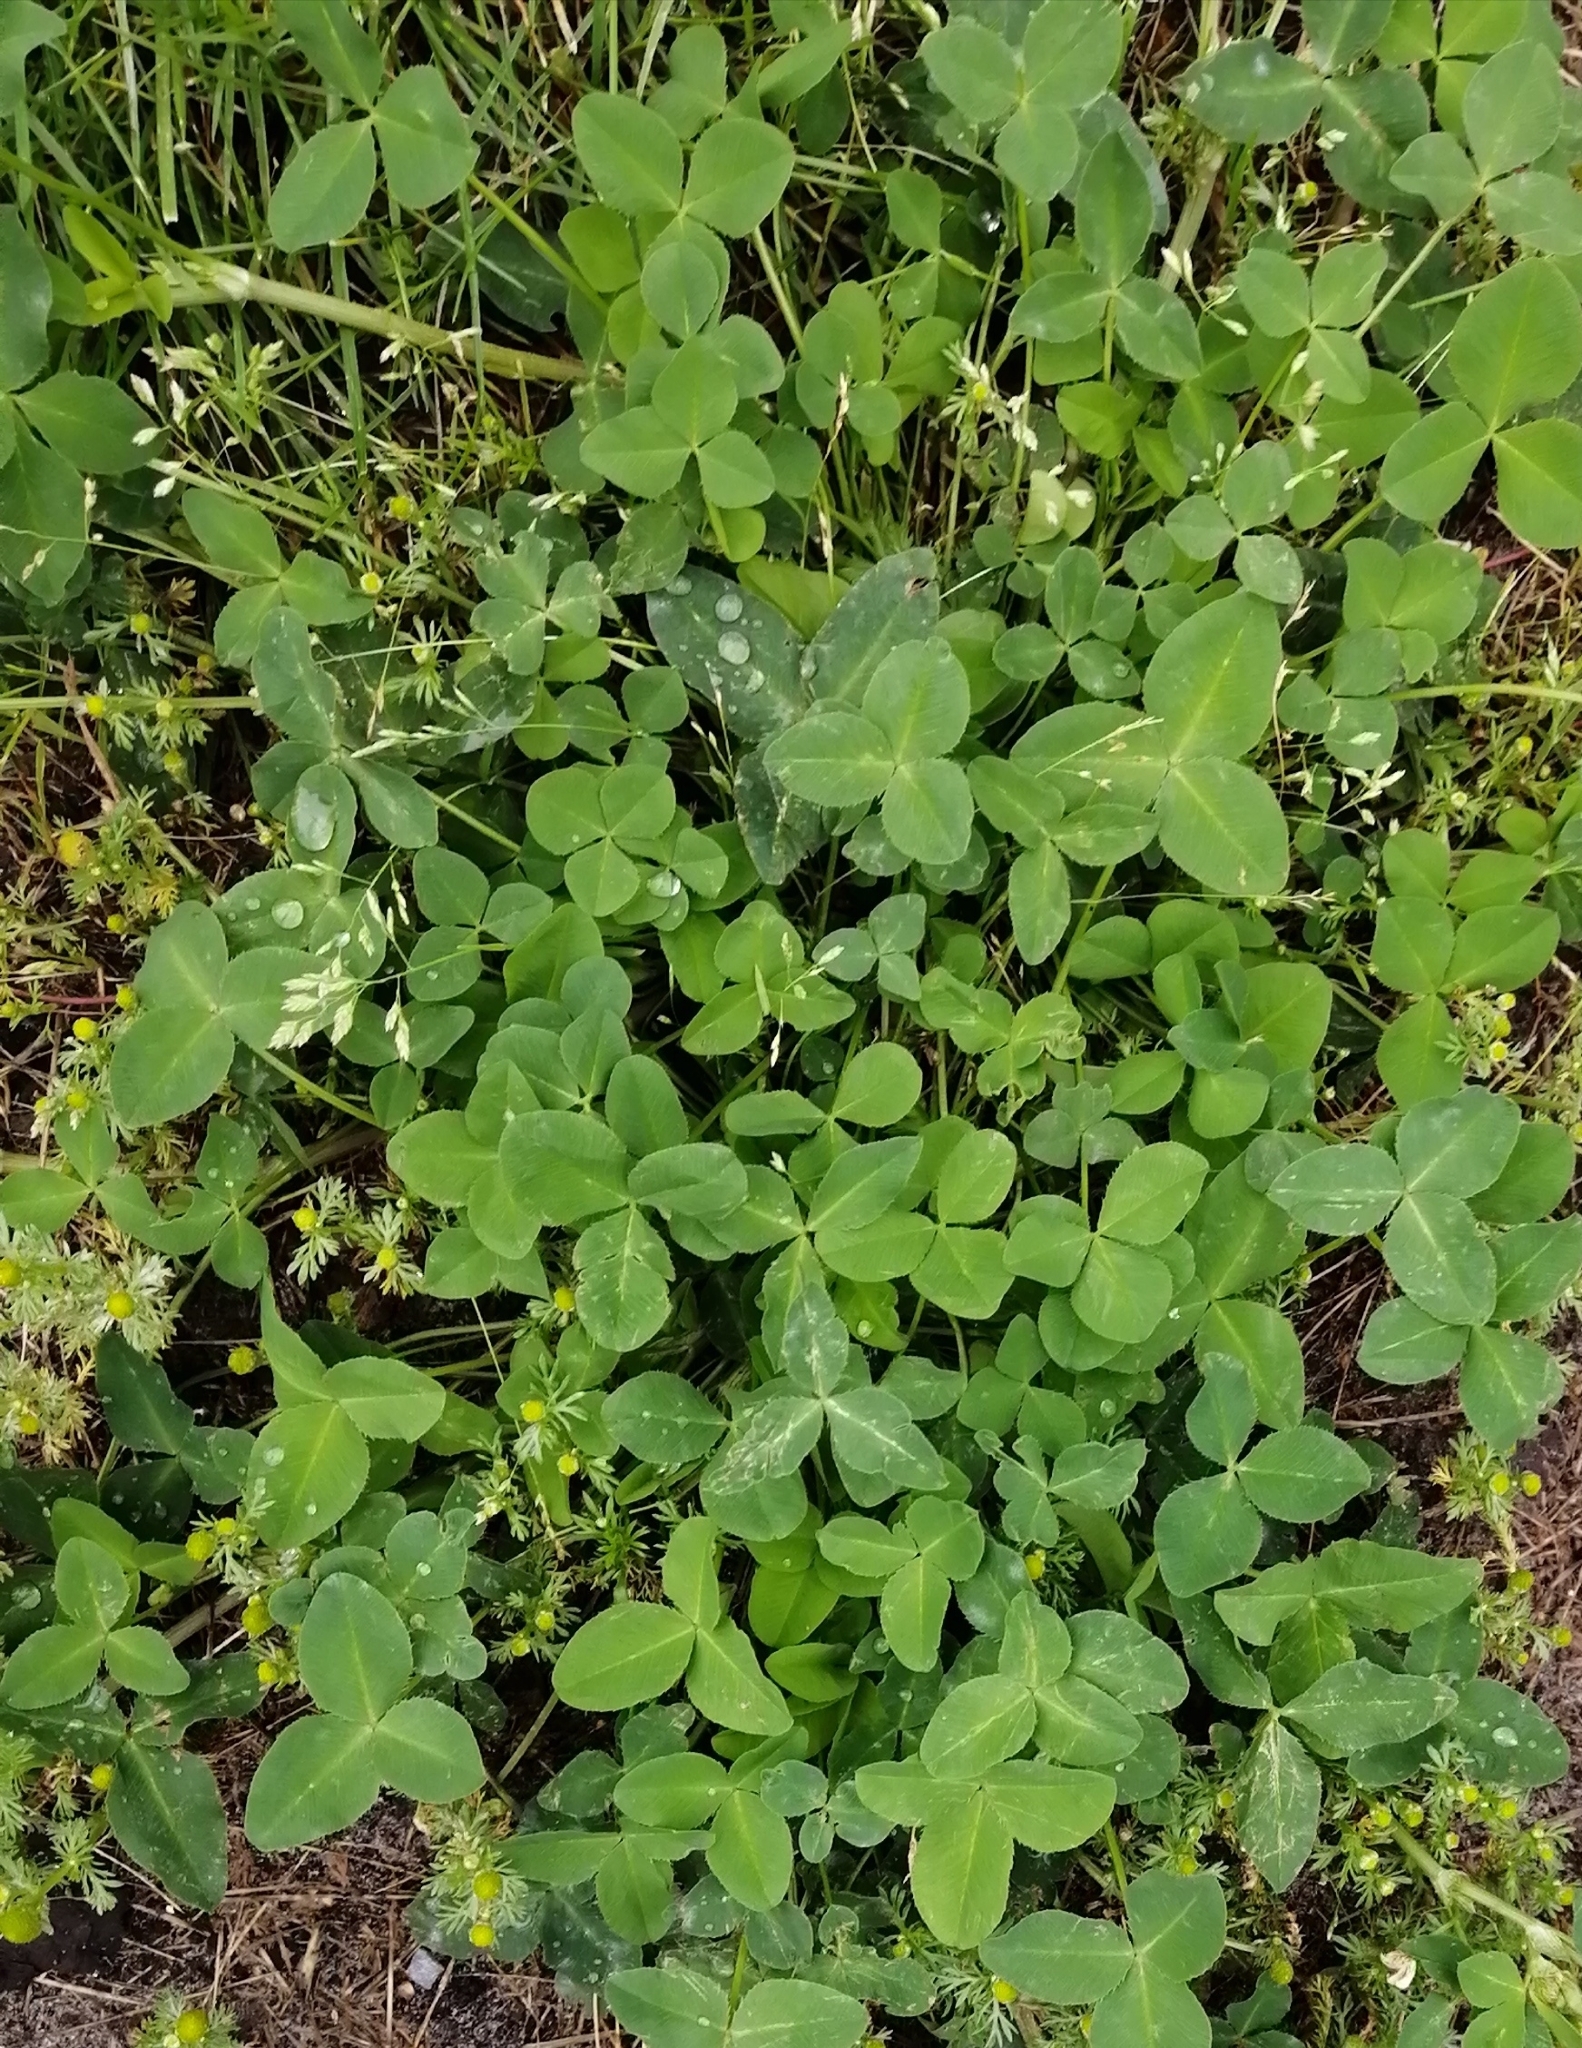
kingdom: Plantae
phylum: Tracheophyta
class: Magnoliopsida
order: Fabales
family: Fabaceae
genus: Trifolium
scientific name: Trifolium pratense
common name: Red clover
